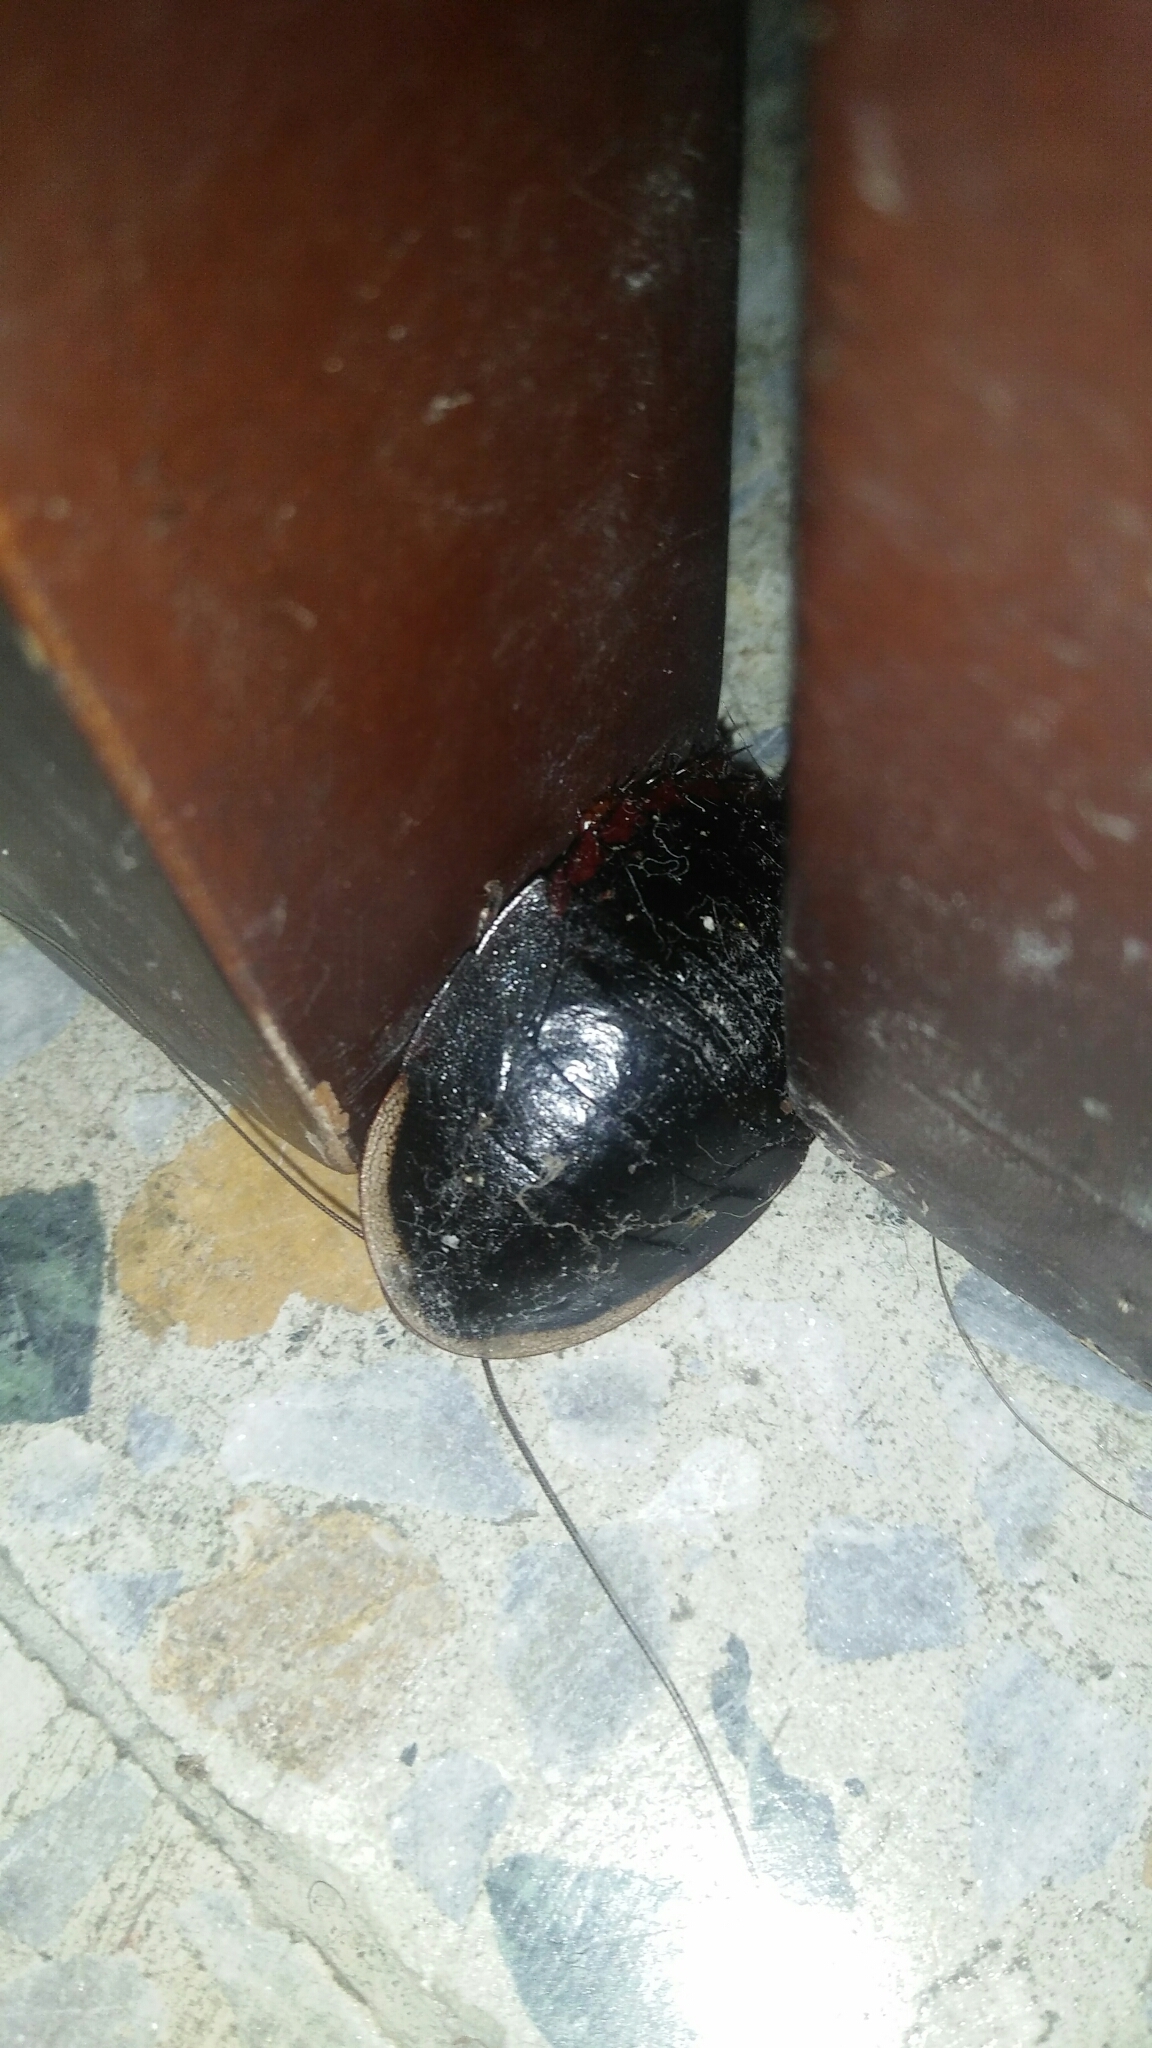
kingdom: Animalia
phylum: Arthropoda
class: Insecta
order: Blattodea
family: Blaberidae
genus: Opisthoplatia
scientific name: Opisthoplatia orientalis
